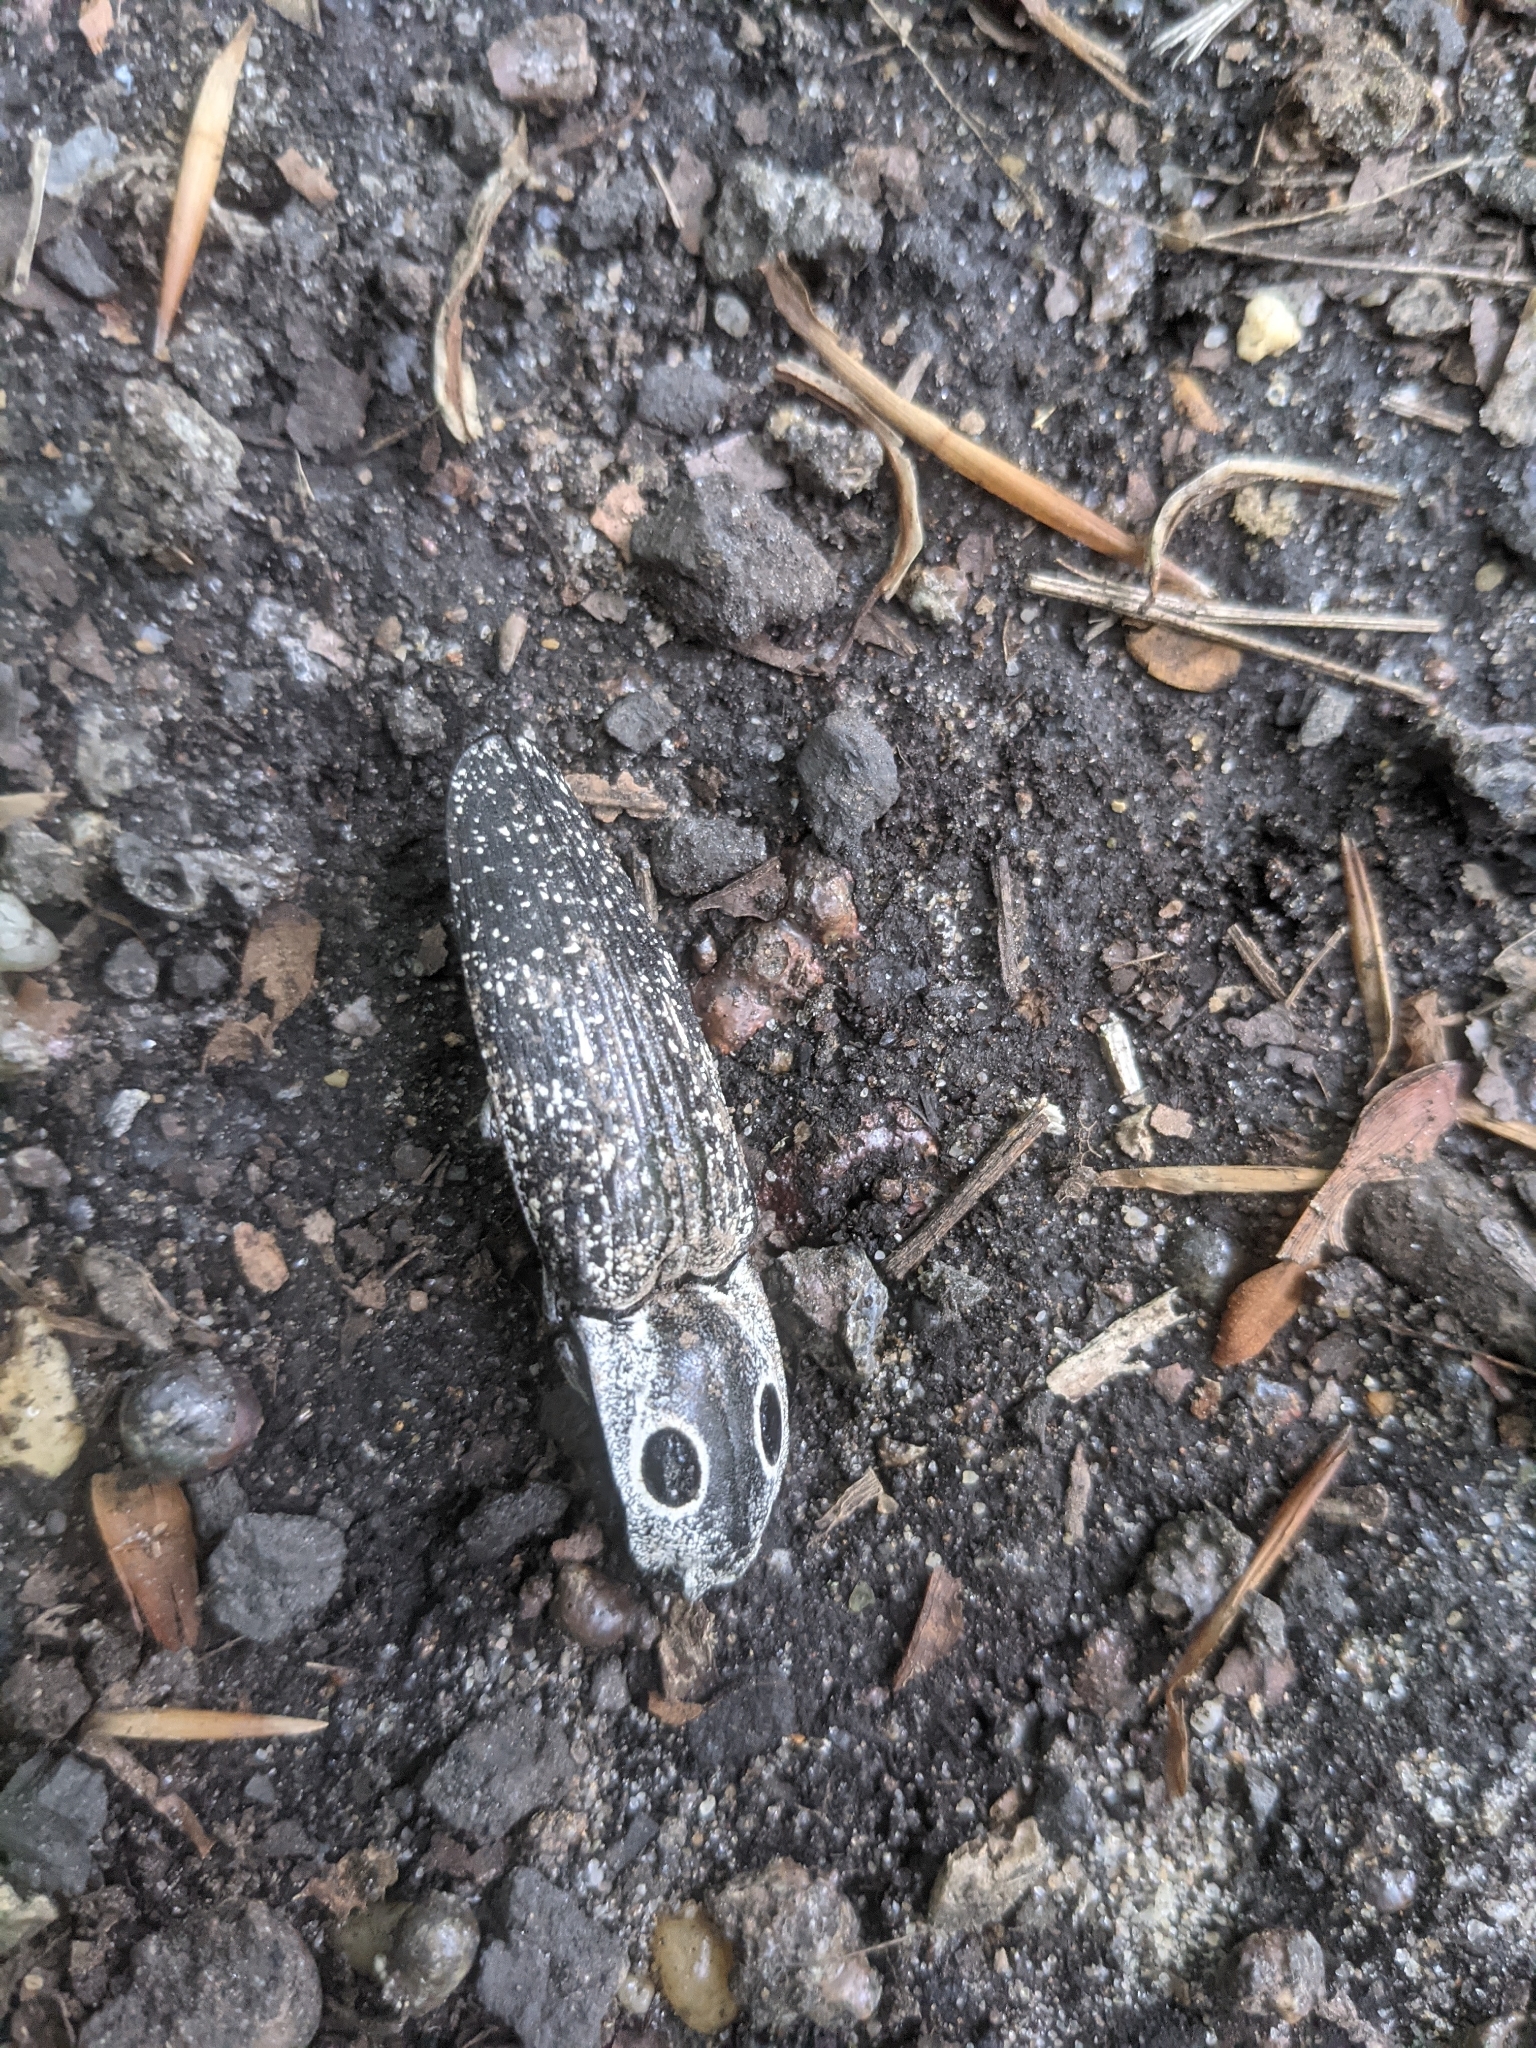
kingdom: Animalia
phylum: Arthropoda
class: Insecta
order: Coleoptera
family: Elateridae
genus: Alaus
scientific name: Alaus oculatus
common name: Eastern eyed click beetle
